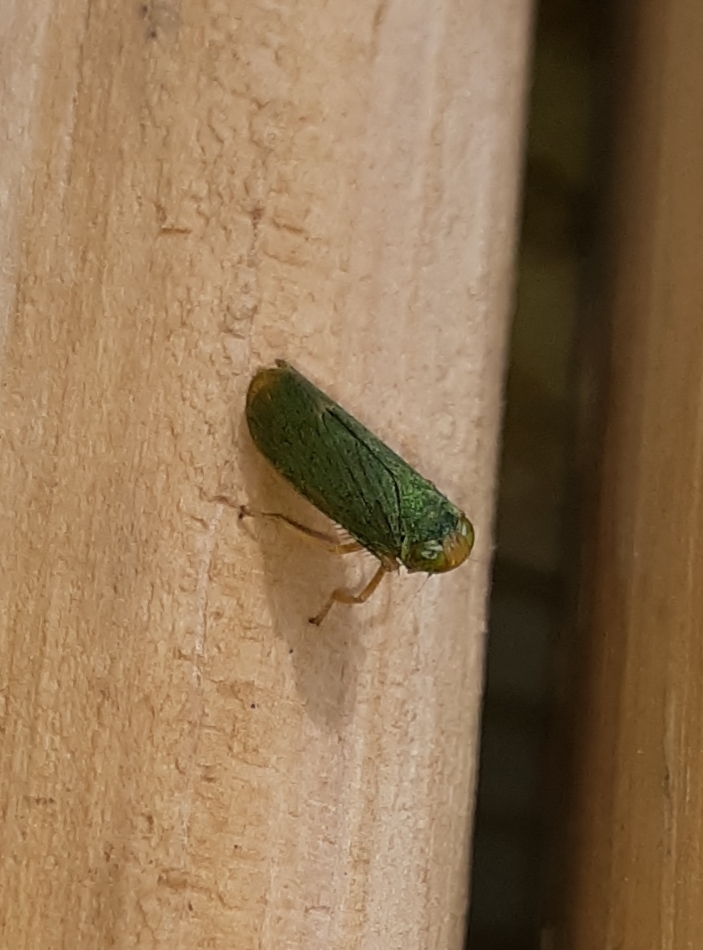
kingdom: Animalia
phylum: Arthropoda
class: Insecta
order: Hemiptera
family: Cicadellidae
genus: Jikradia
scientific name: Jikradia olitoria
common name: Coppery leafhopper
